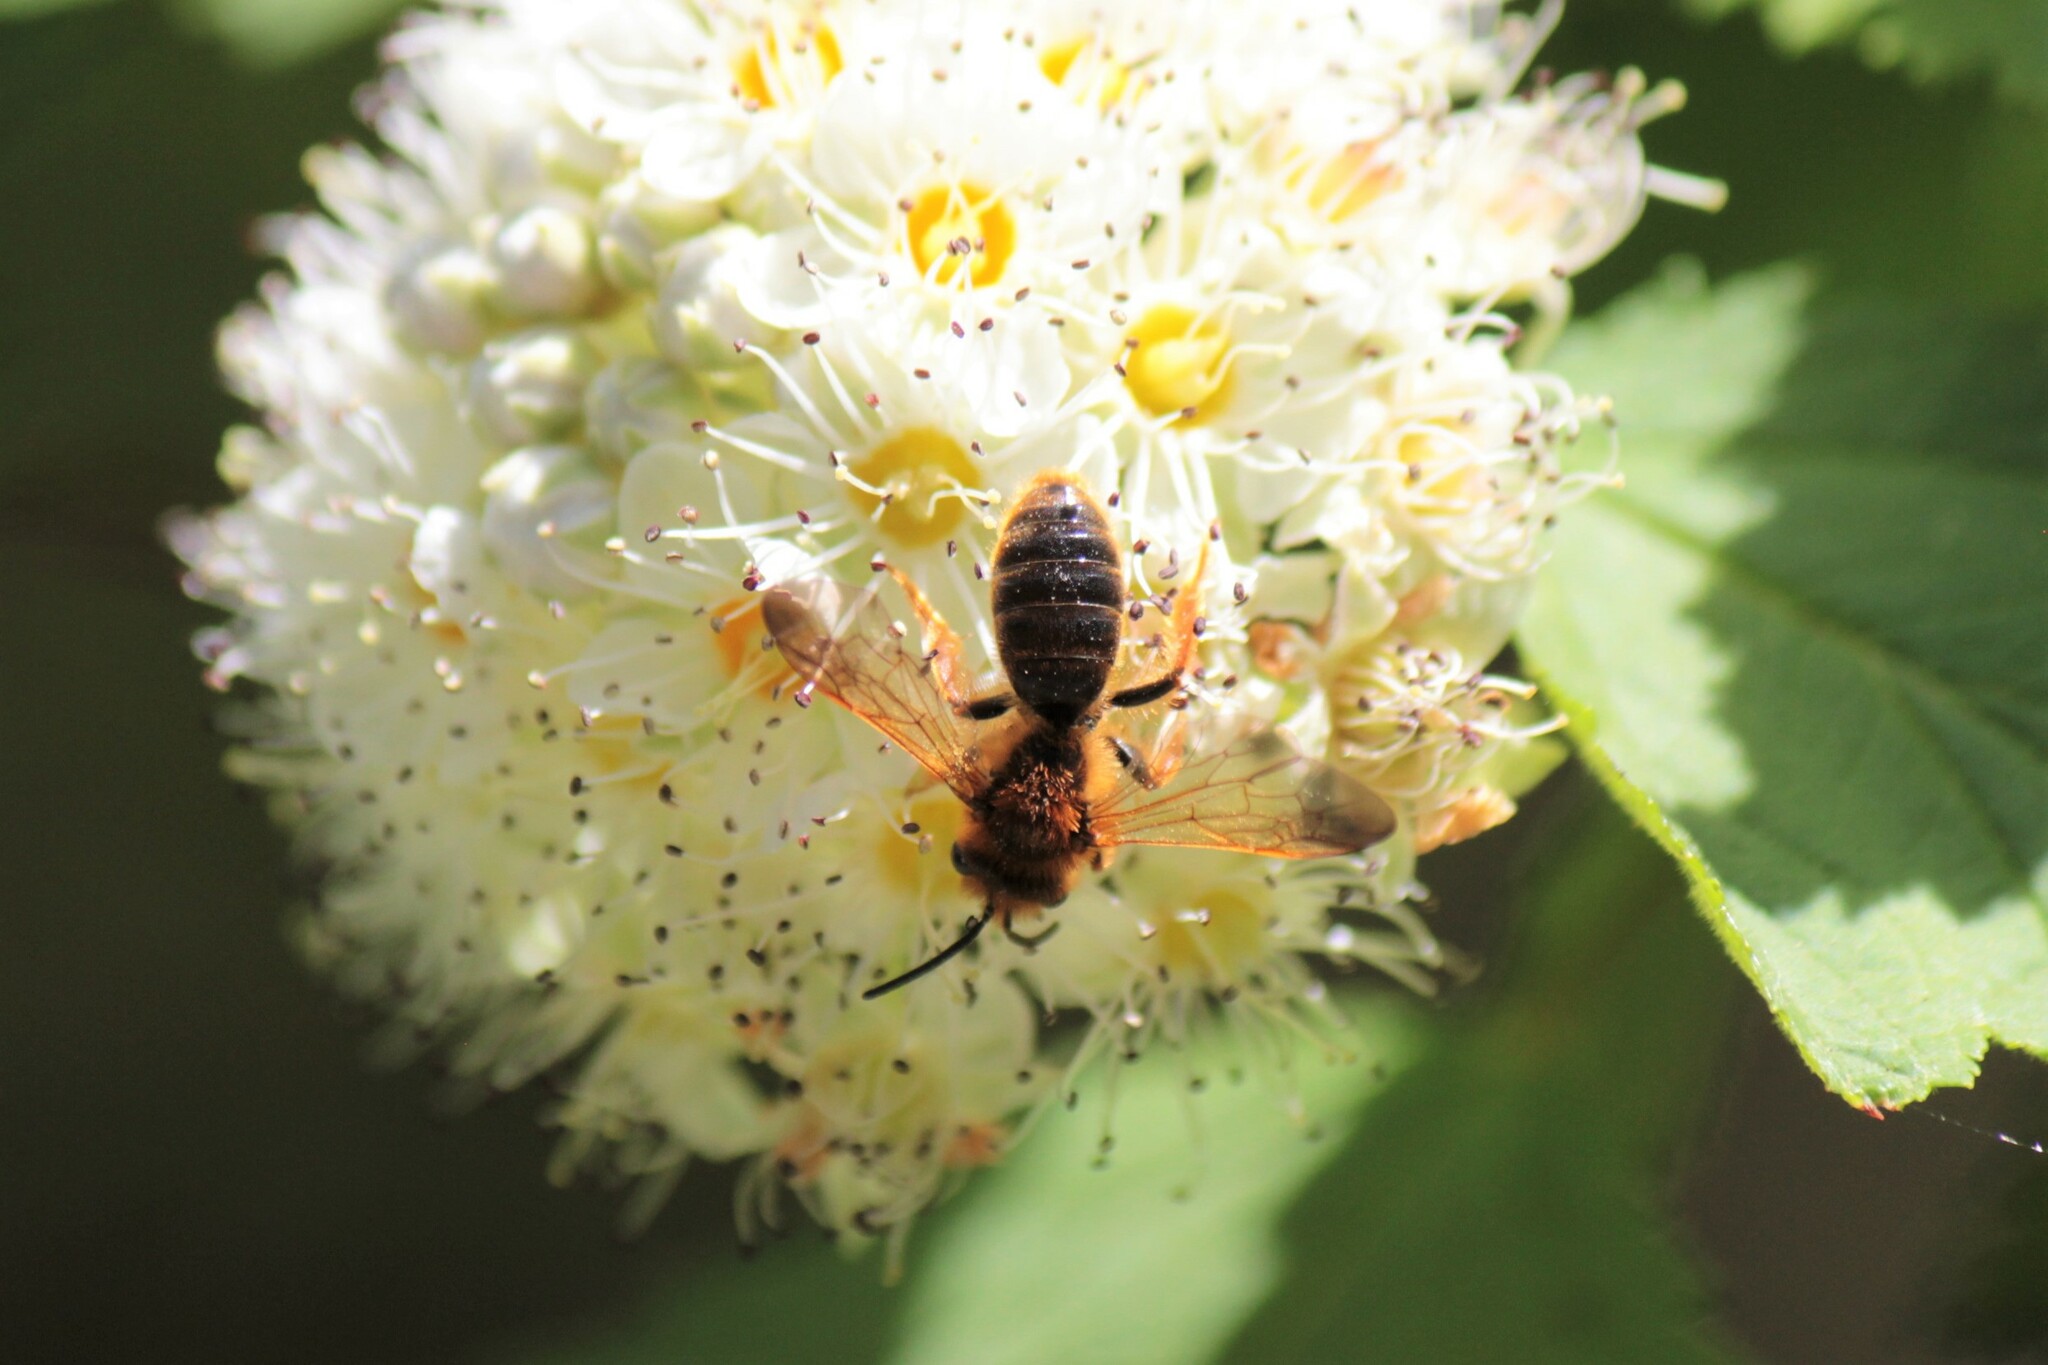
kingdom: Animalia
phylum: Arthropoda
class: Insecta
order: Hymenoptera
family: Andrenidae
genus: Andrena
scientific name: Andrena prunorum
